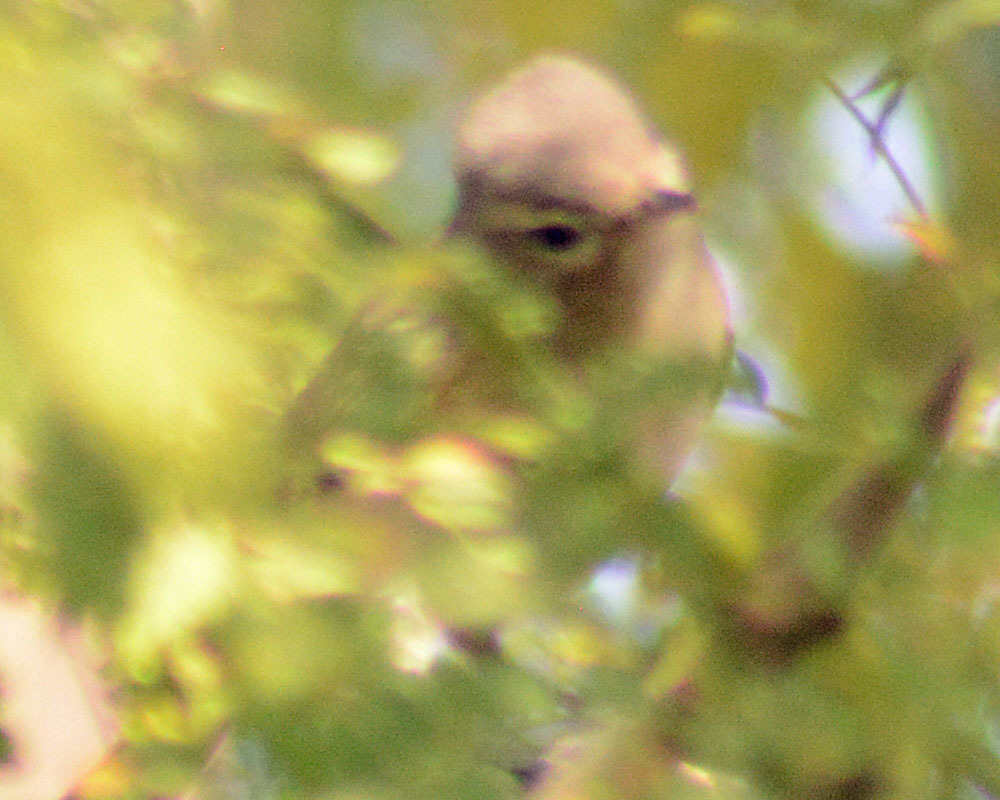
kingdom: Animalia
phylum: Chordata
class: Aves
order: Passeriformes
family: Vireonidae
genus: Vireo
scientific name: Vireo gilvus
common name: Warbling vireo
